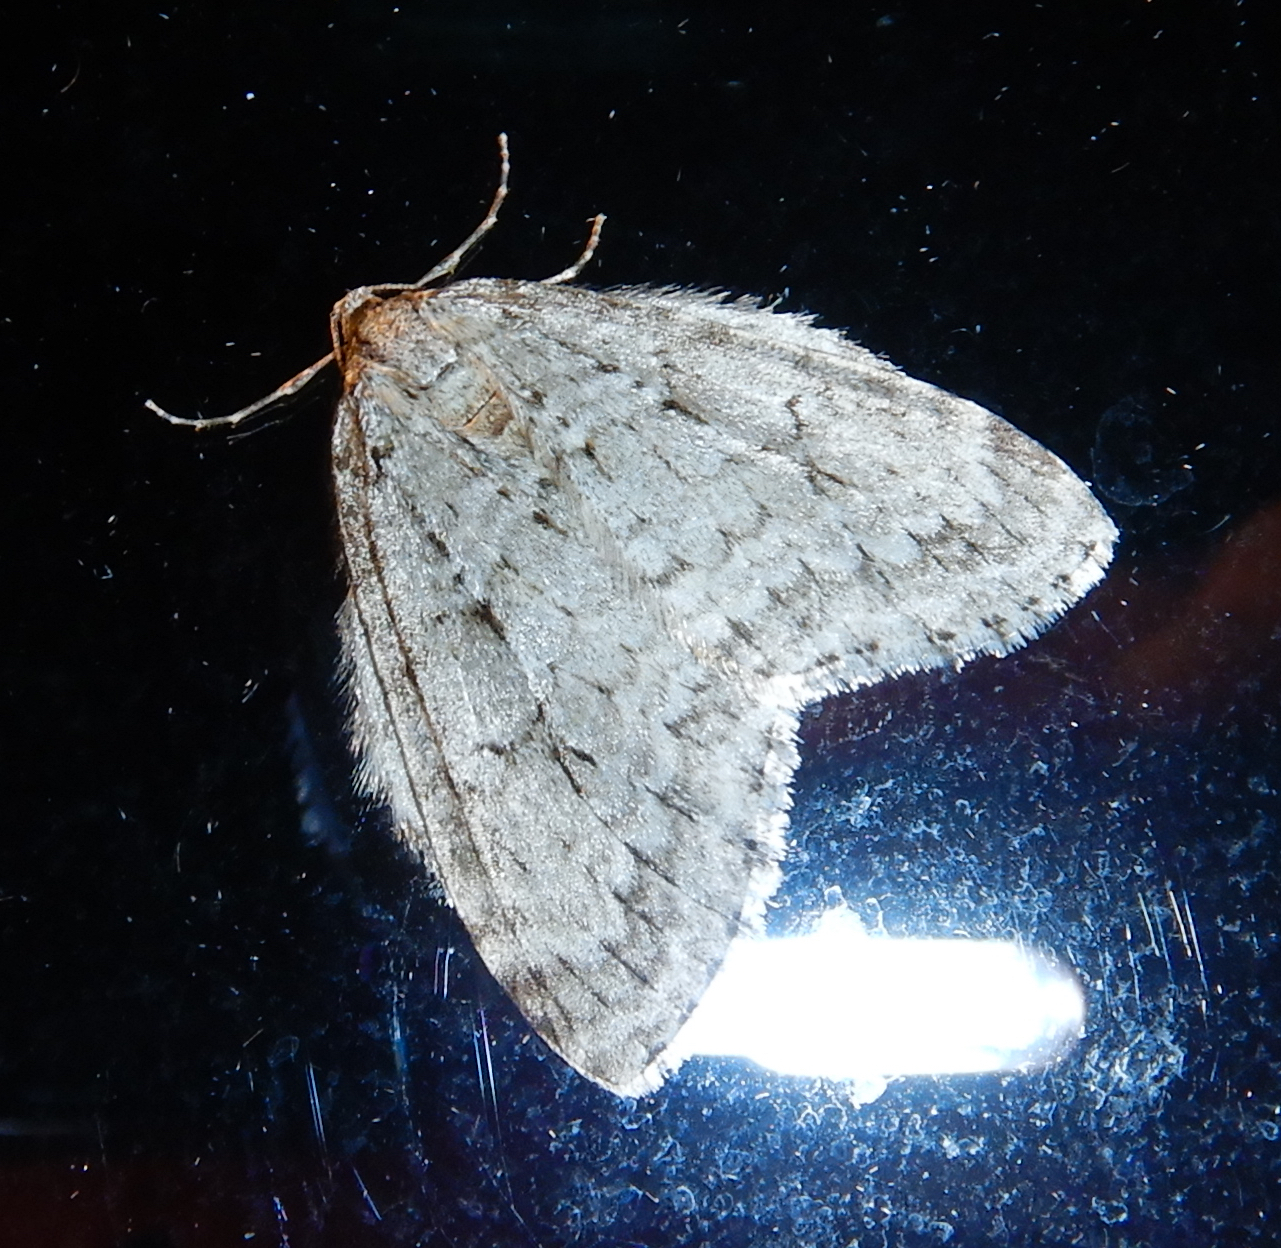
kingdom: Animalia
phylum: Arthropoda
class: Insecta
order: Lepidoptera
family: Geometridae
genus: Epirrita
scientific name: Epirrita autumnata
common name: Autumnal moth
